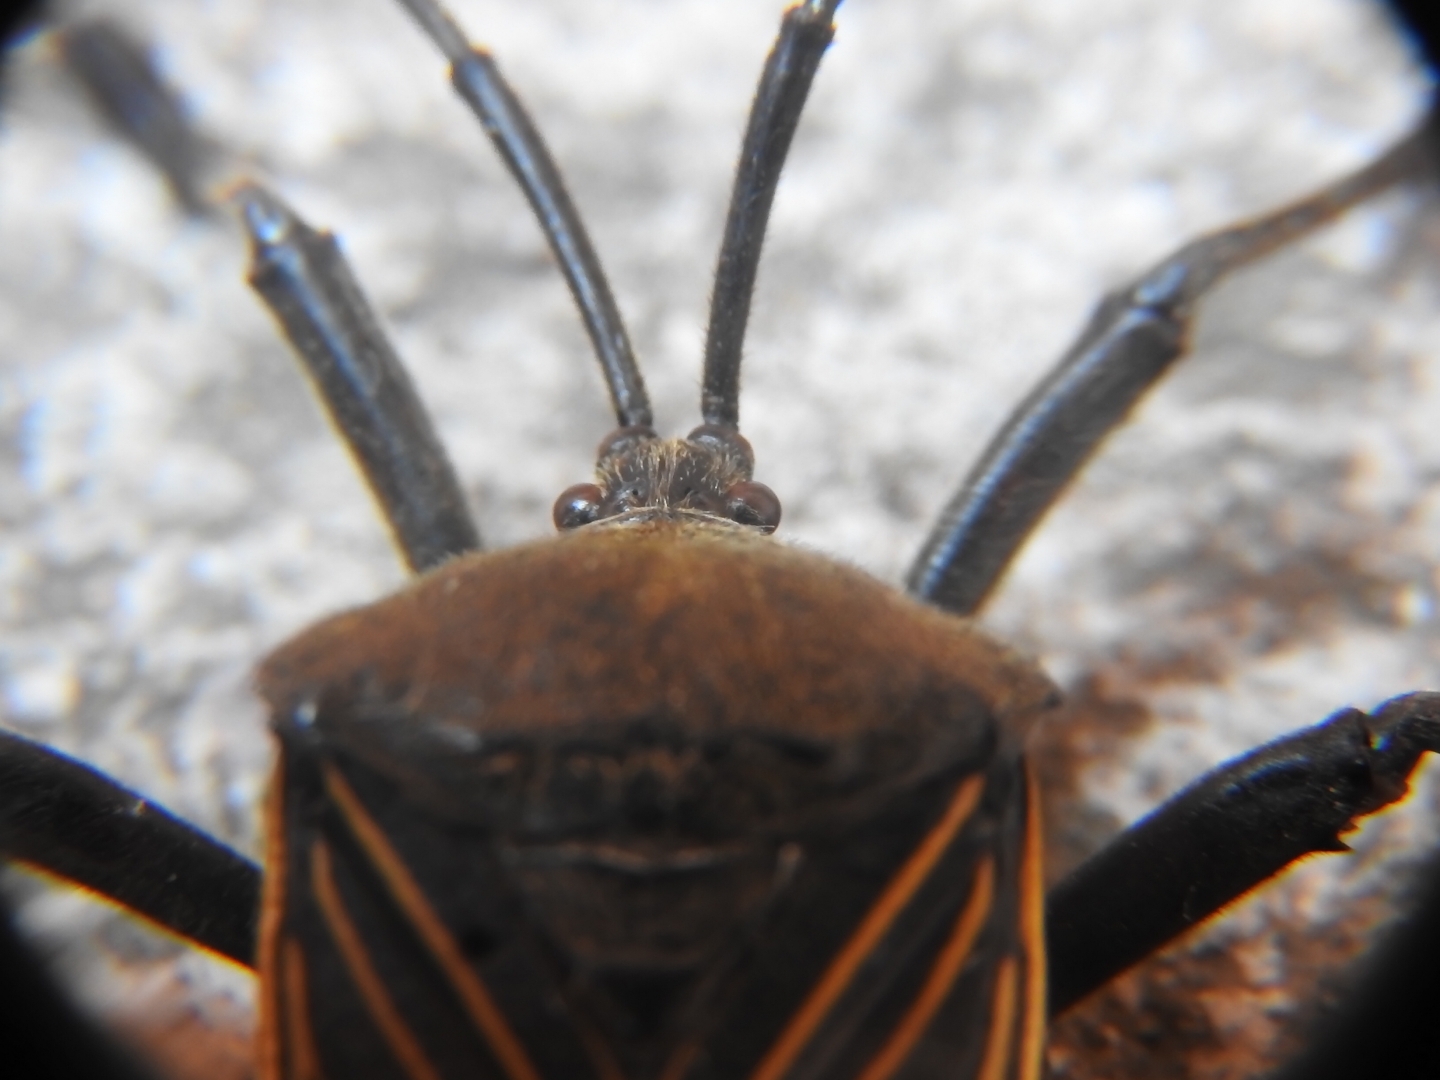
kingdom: Animalia
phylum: Arthropoda
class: Insecta
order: Hemiptera
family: Coreidae
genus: Thasus
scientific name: Thasus
